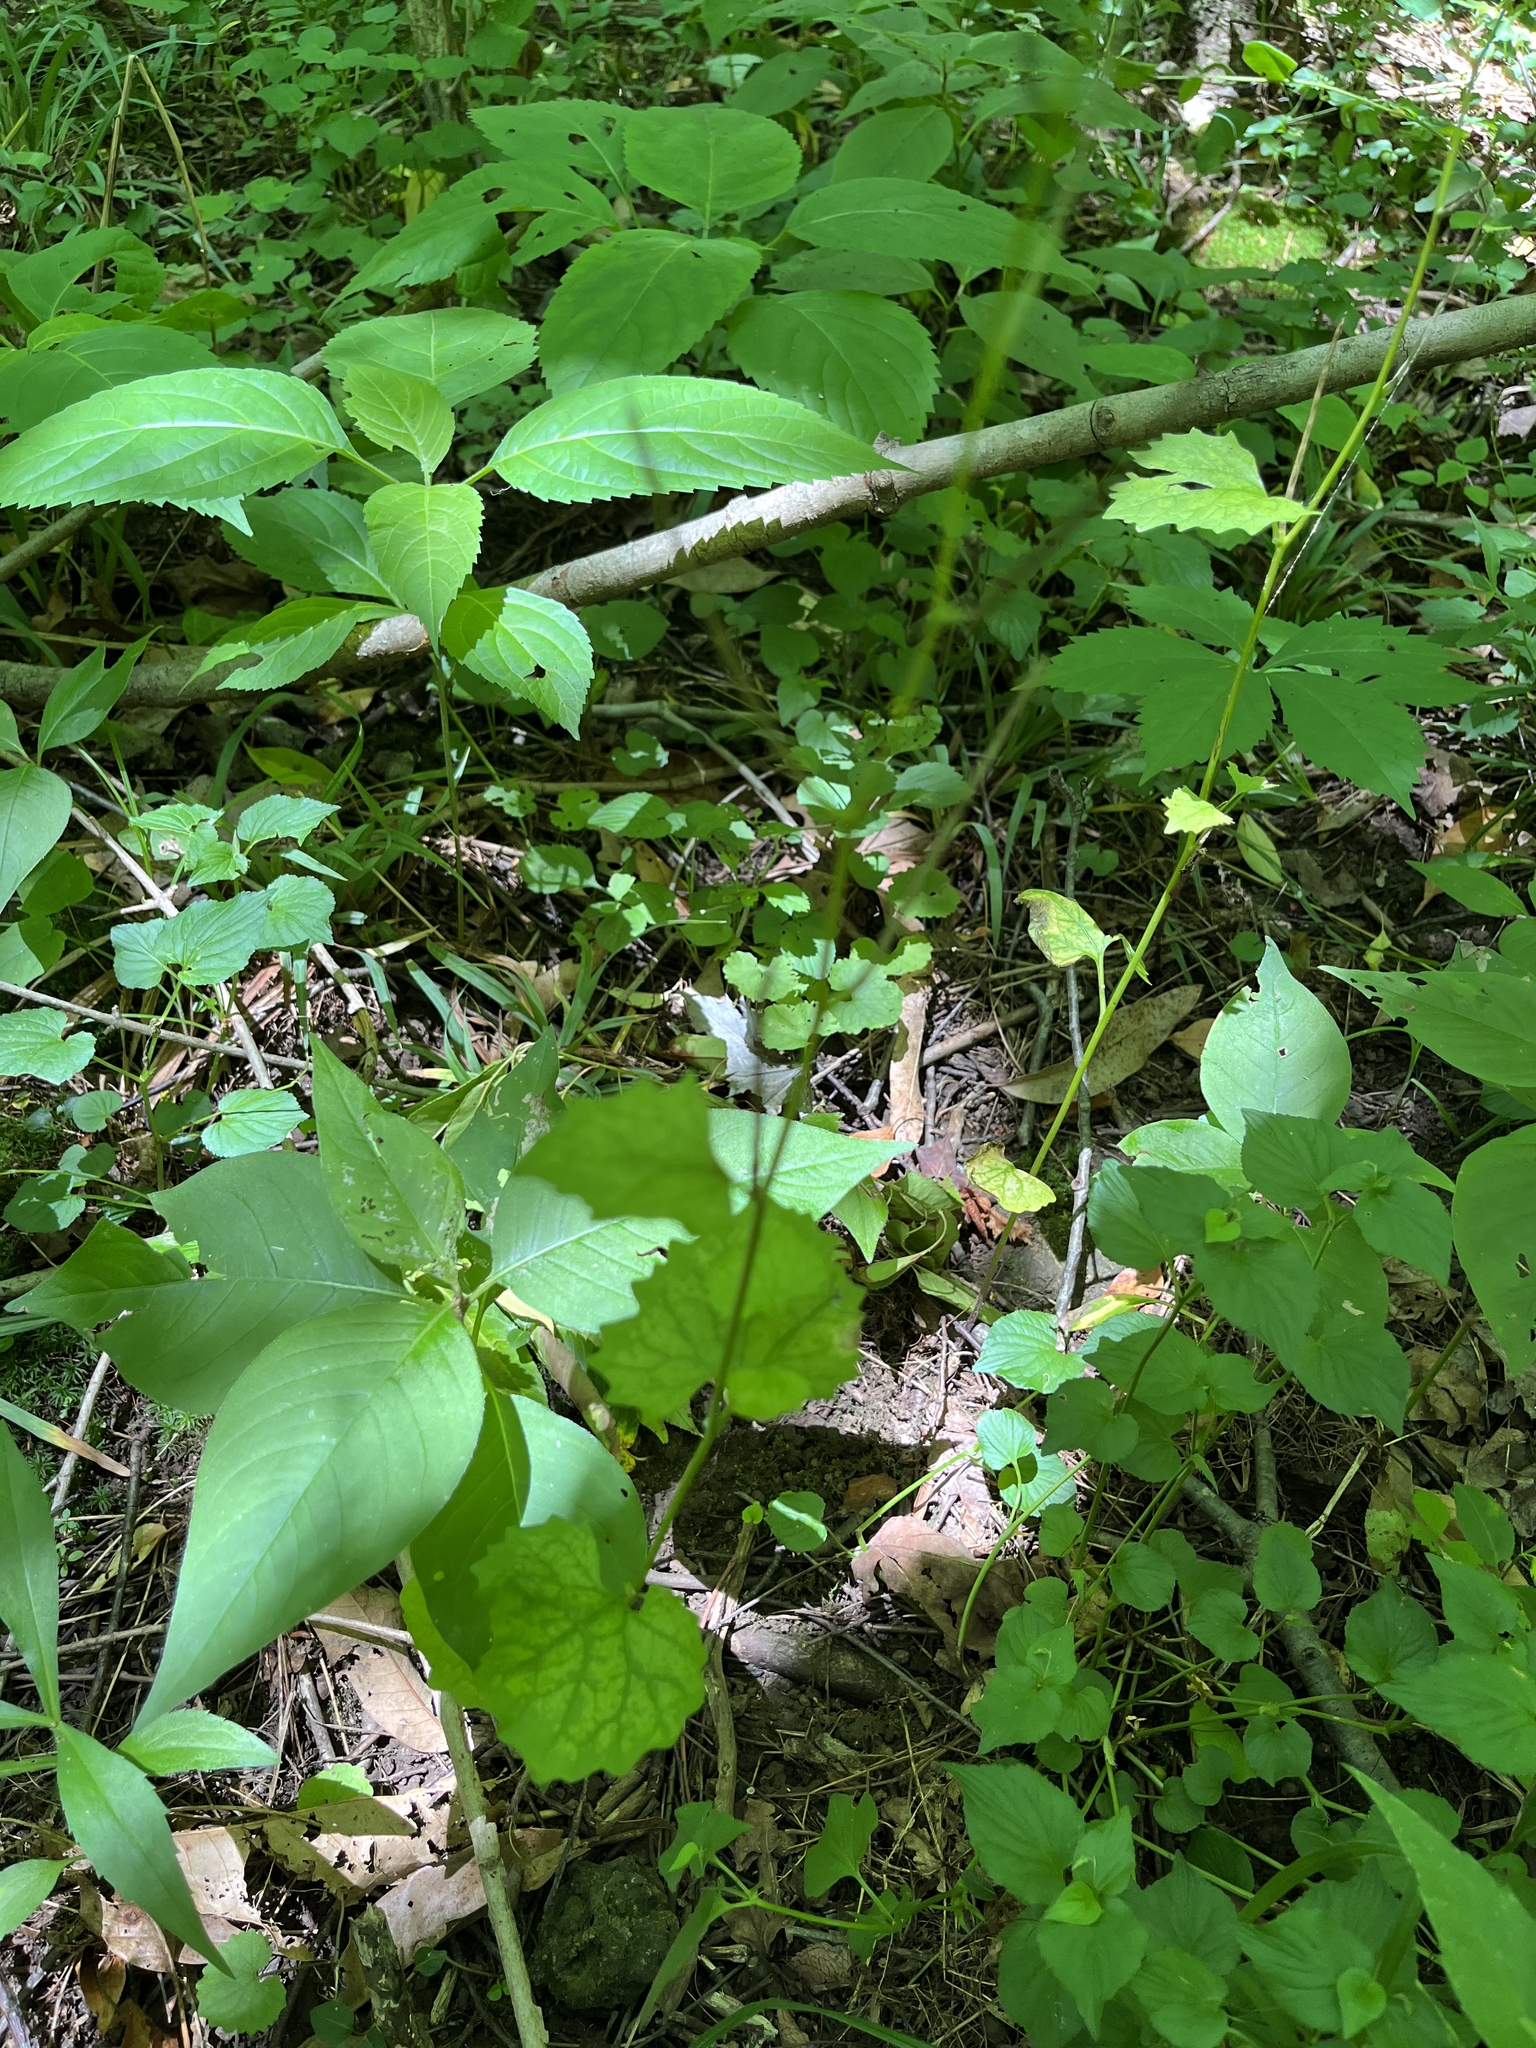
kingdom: Plantae
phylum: Tracheophyta
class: Magnoliopsida
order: Brassicales
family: Brassicaceae
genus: Alliaria
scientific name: Alliaria petiolata
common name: Garlic mustard
